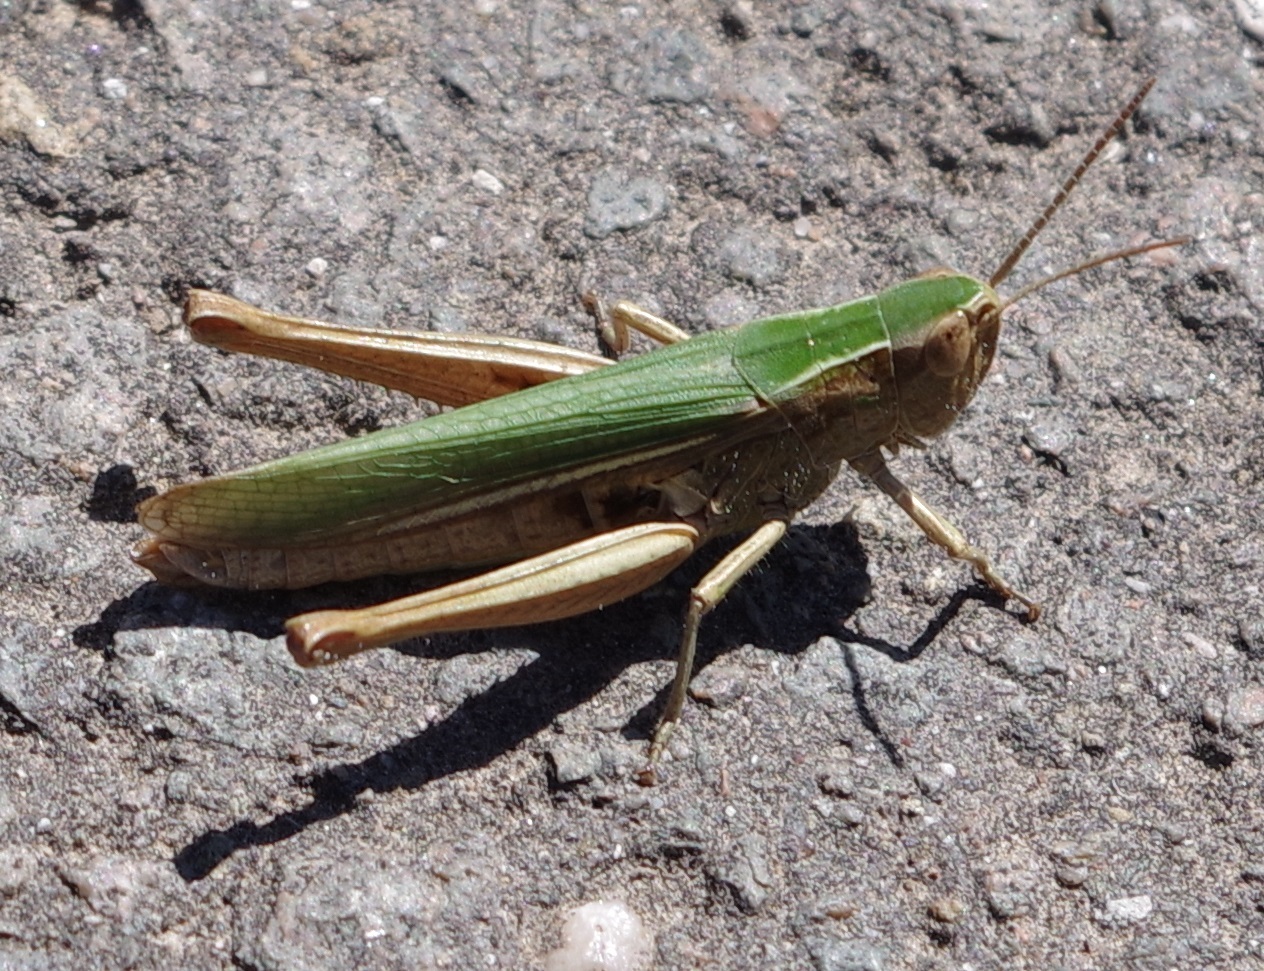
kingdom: Animalia
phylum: Arthropoda
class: Insecta
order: Orthoptera
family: Acrididae
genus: Chorthippus
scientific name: Chorthippus albomarginatus
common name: Lesser marsh grasshopper
